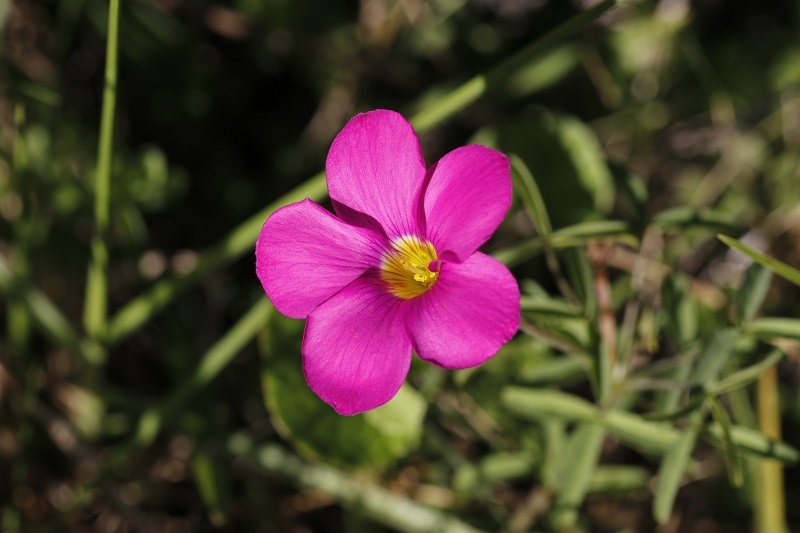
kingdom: Plantae
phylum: Tracheophyta
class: Magnoliopsida
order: Oxalidales
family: Oxalidaceae
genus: Oxalis
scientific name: Oxalis ciliaris
